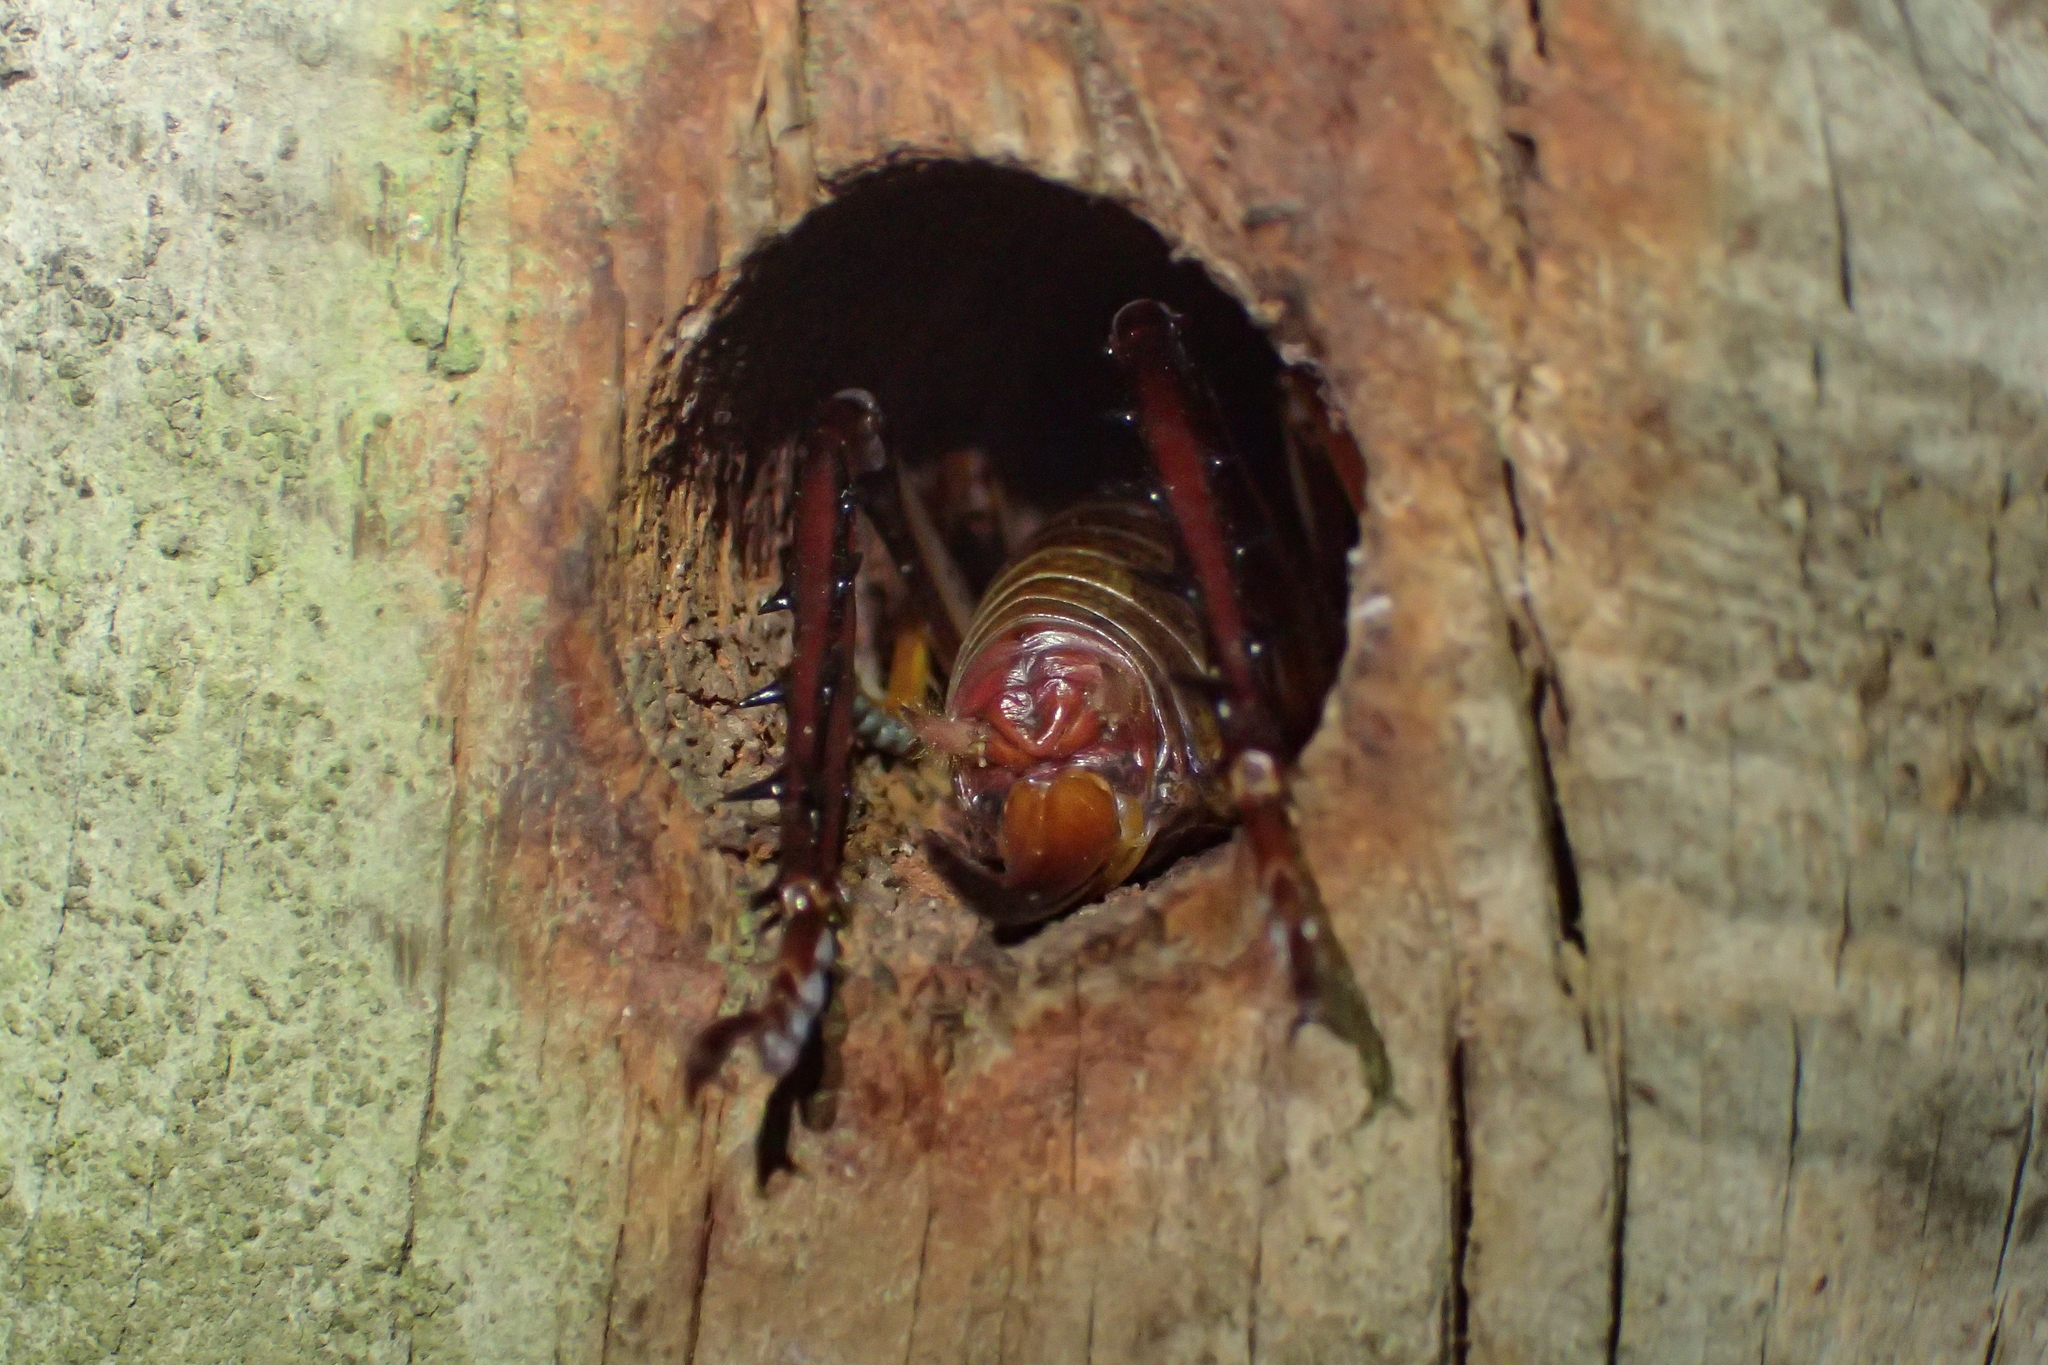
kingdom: Animalia
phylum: Arthropoda
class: Insecta
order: Orthoptera
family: Anostostomatidae
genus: Hemideina
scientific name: Hemideina thoracica
